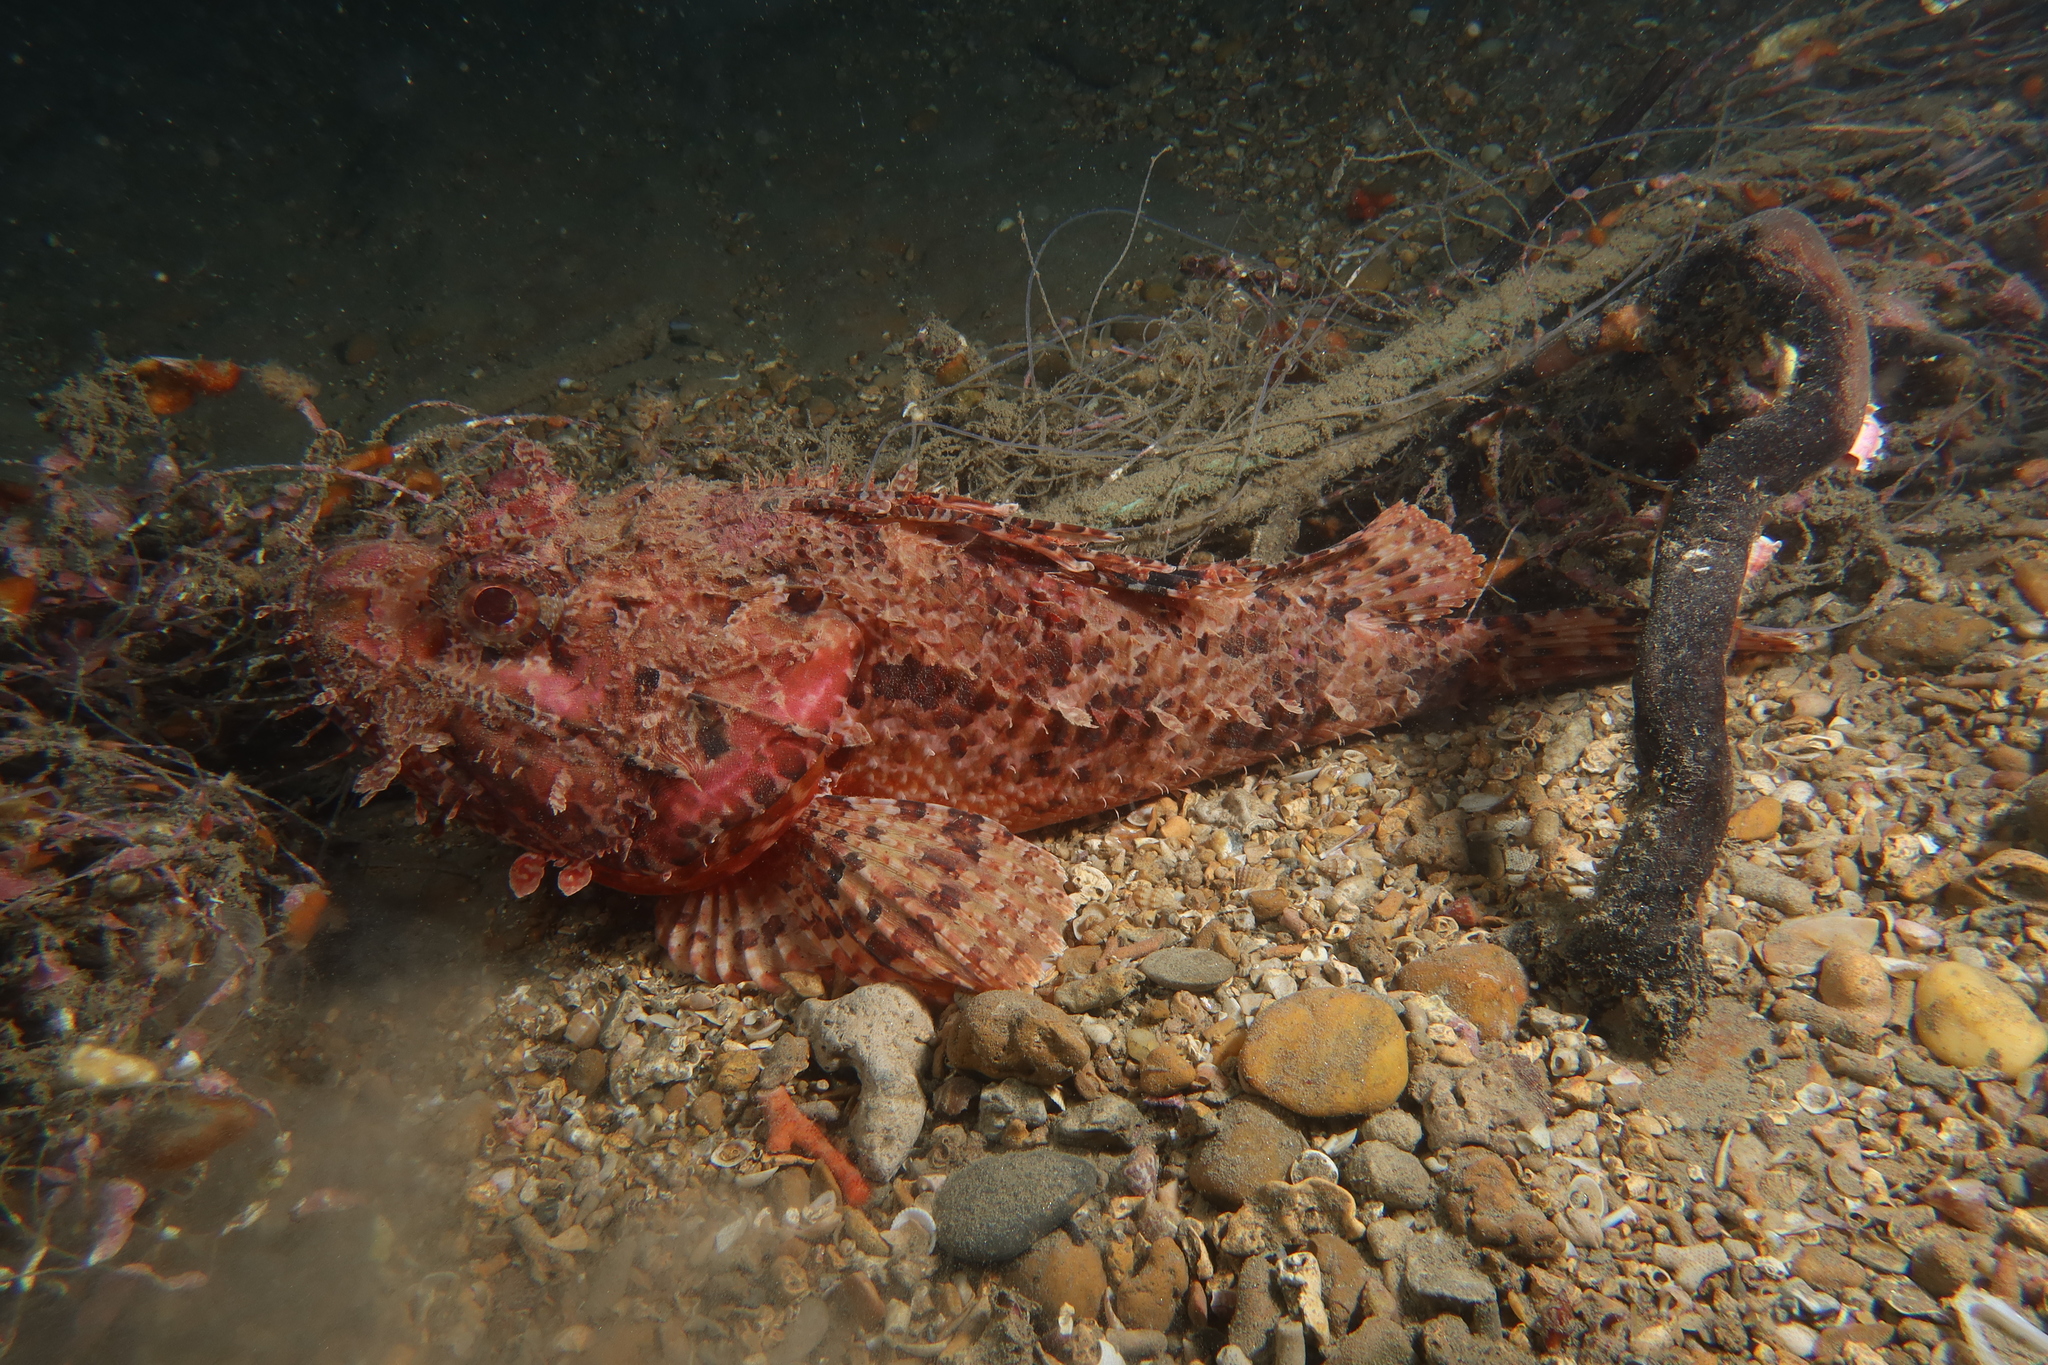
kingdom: Animalia
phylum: Chordata
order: Scorpaeniformes
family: Scorpaenidae
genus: Scorpaena
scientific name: Scorpaena scrofa
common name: Red scorpionfish
